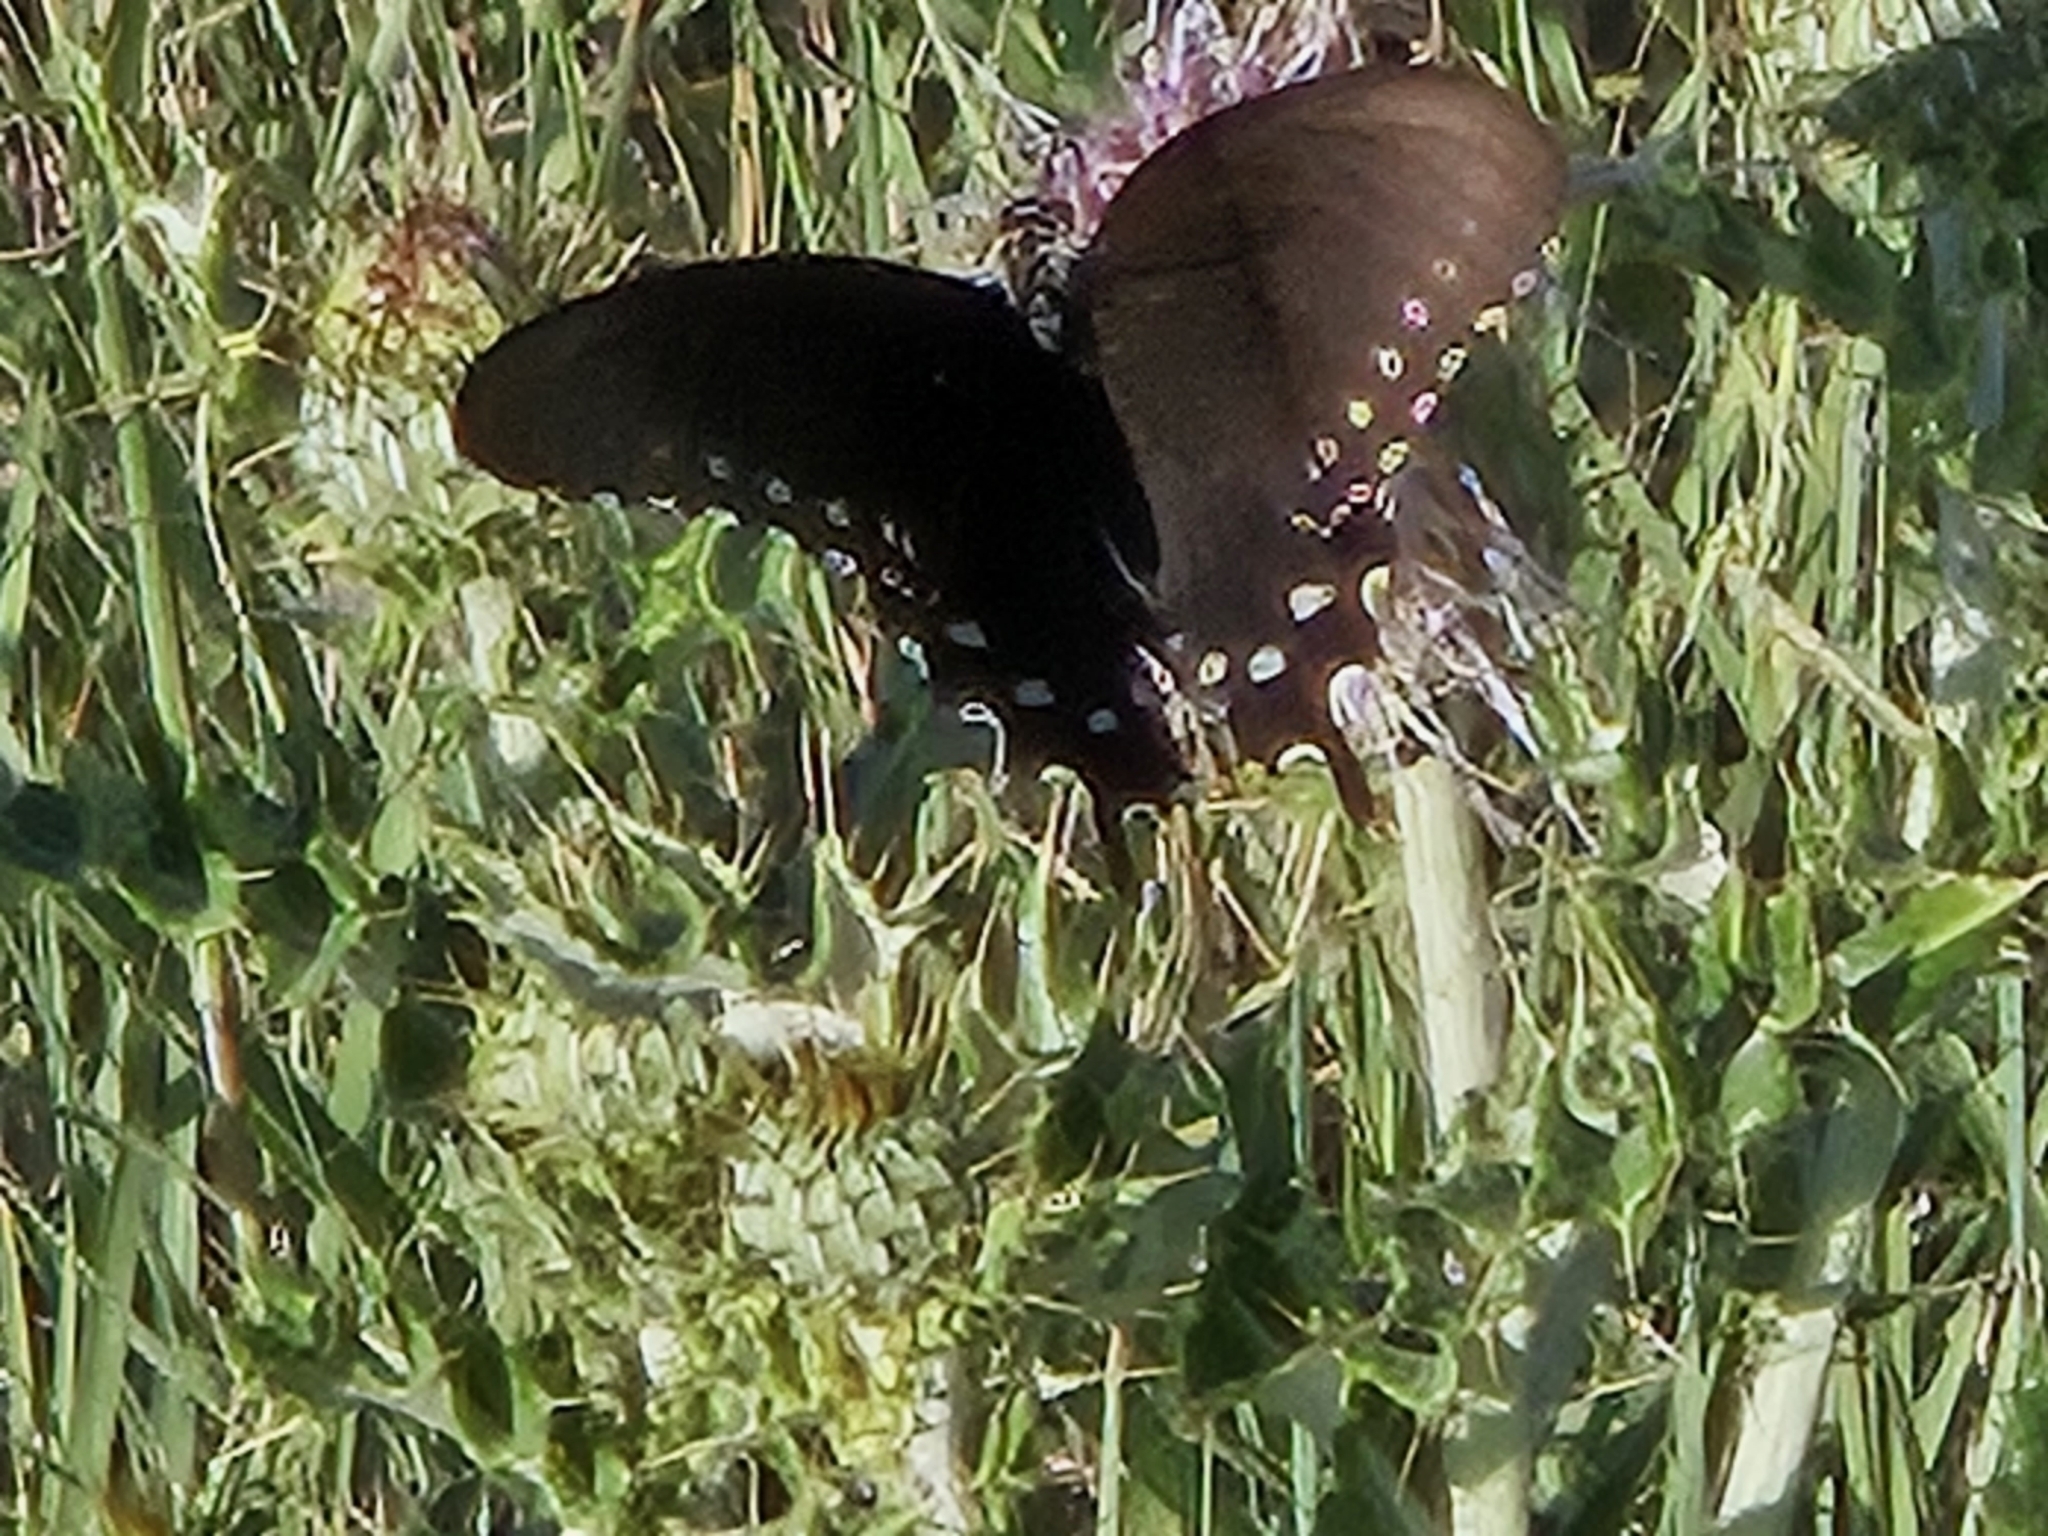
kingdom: Animalia
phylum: Arthropoda
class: Insecta
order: Lepidoptera
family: Papilionidae
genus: Battus
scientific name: Battus philenor
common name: Pipevine swallowtail
